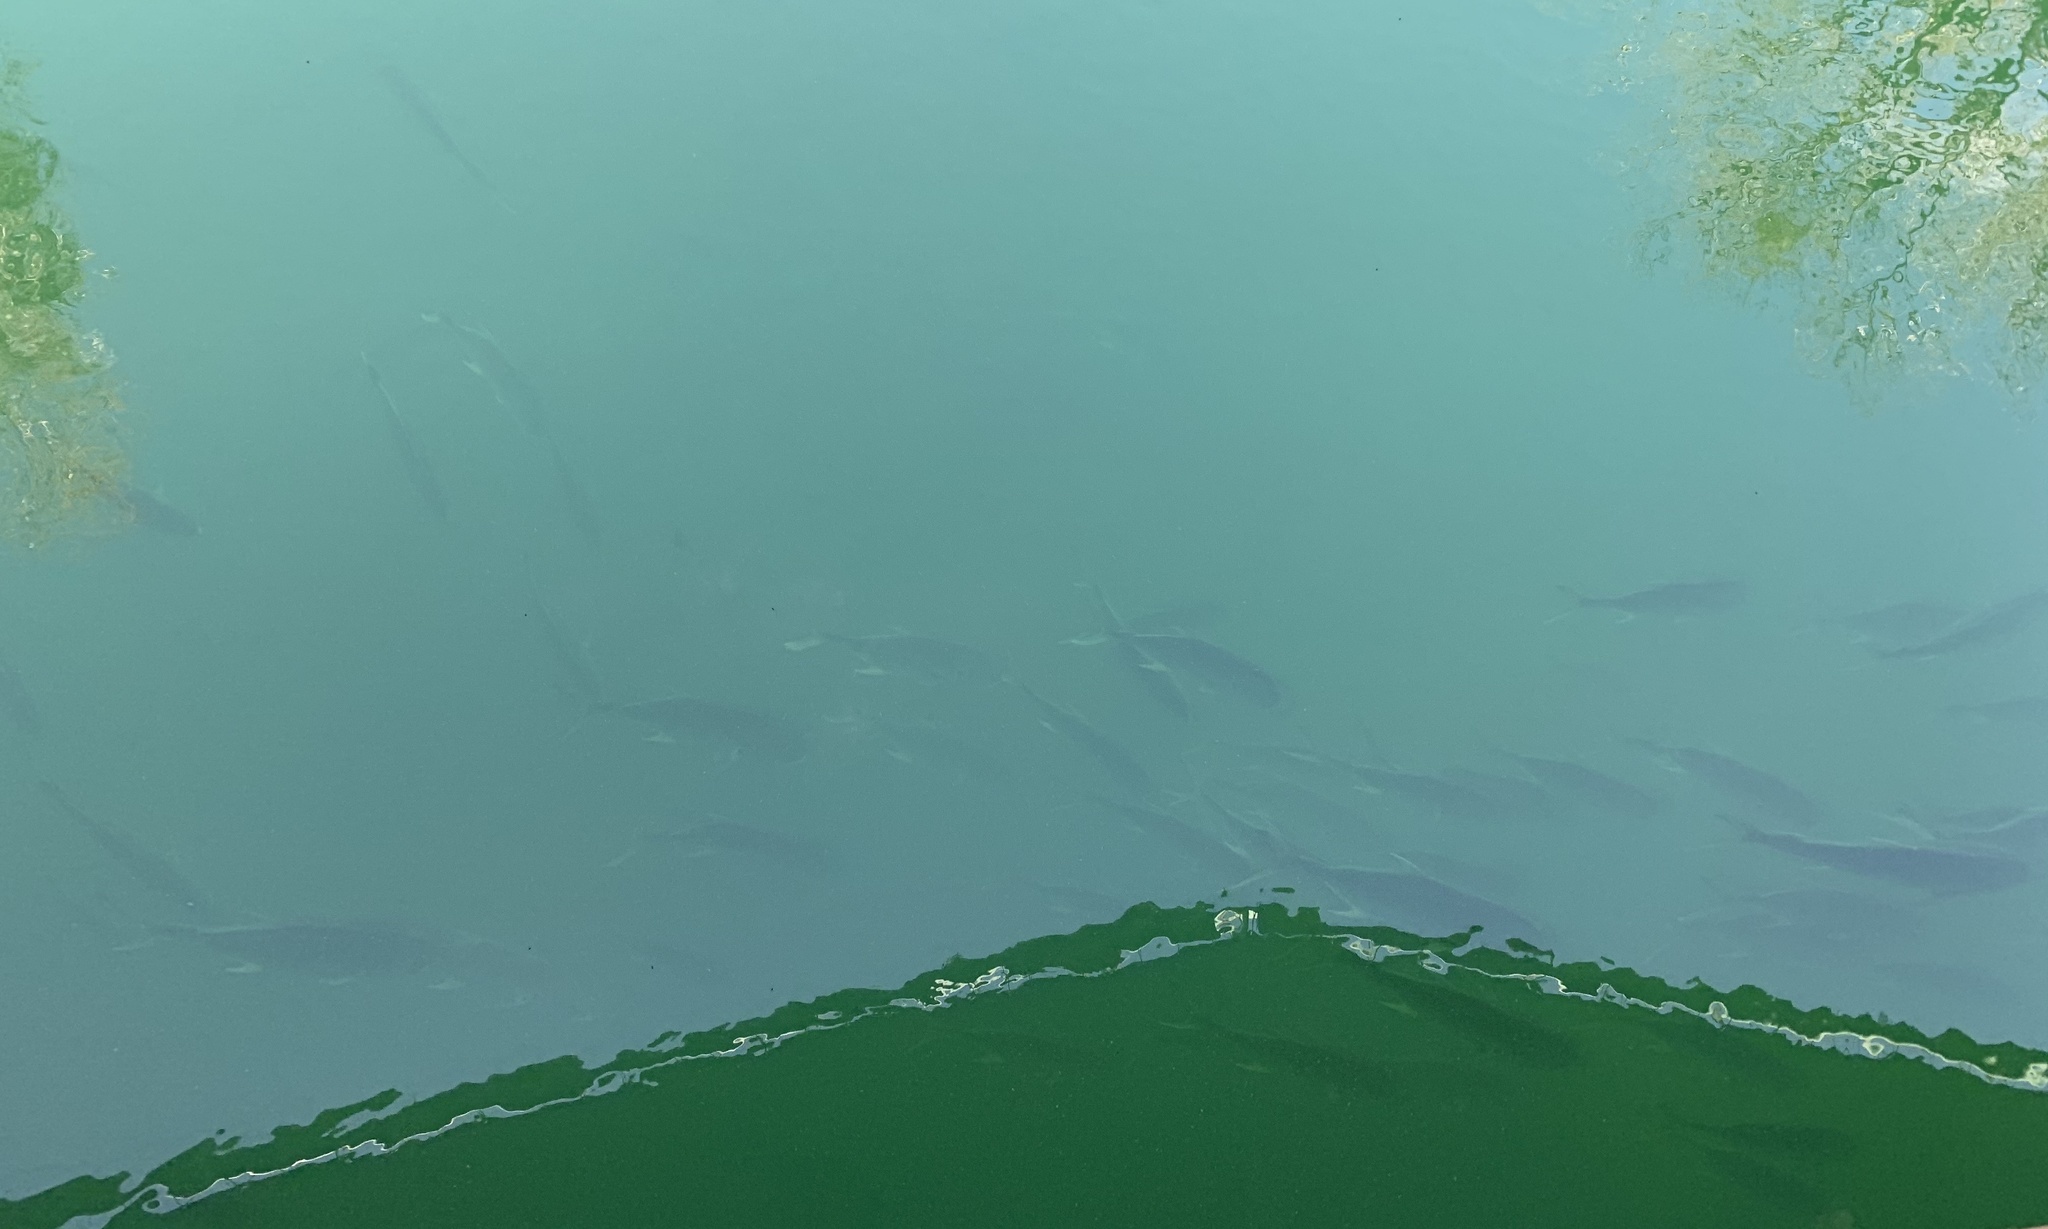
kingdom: Animalia
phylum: Chordata
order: Perciformes
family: Carangidae
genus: Caranx
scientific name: Caranx hippos
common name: Common jack
